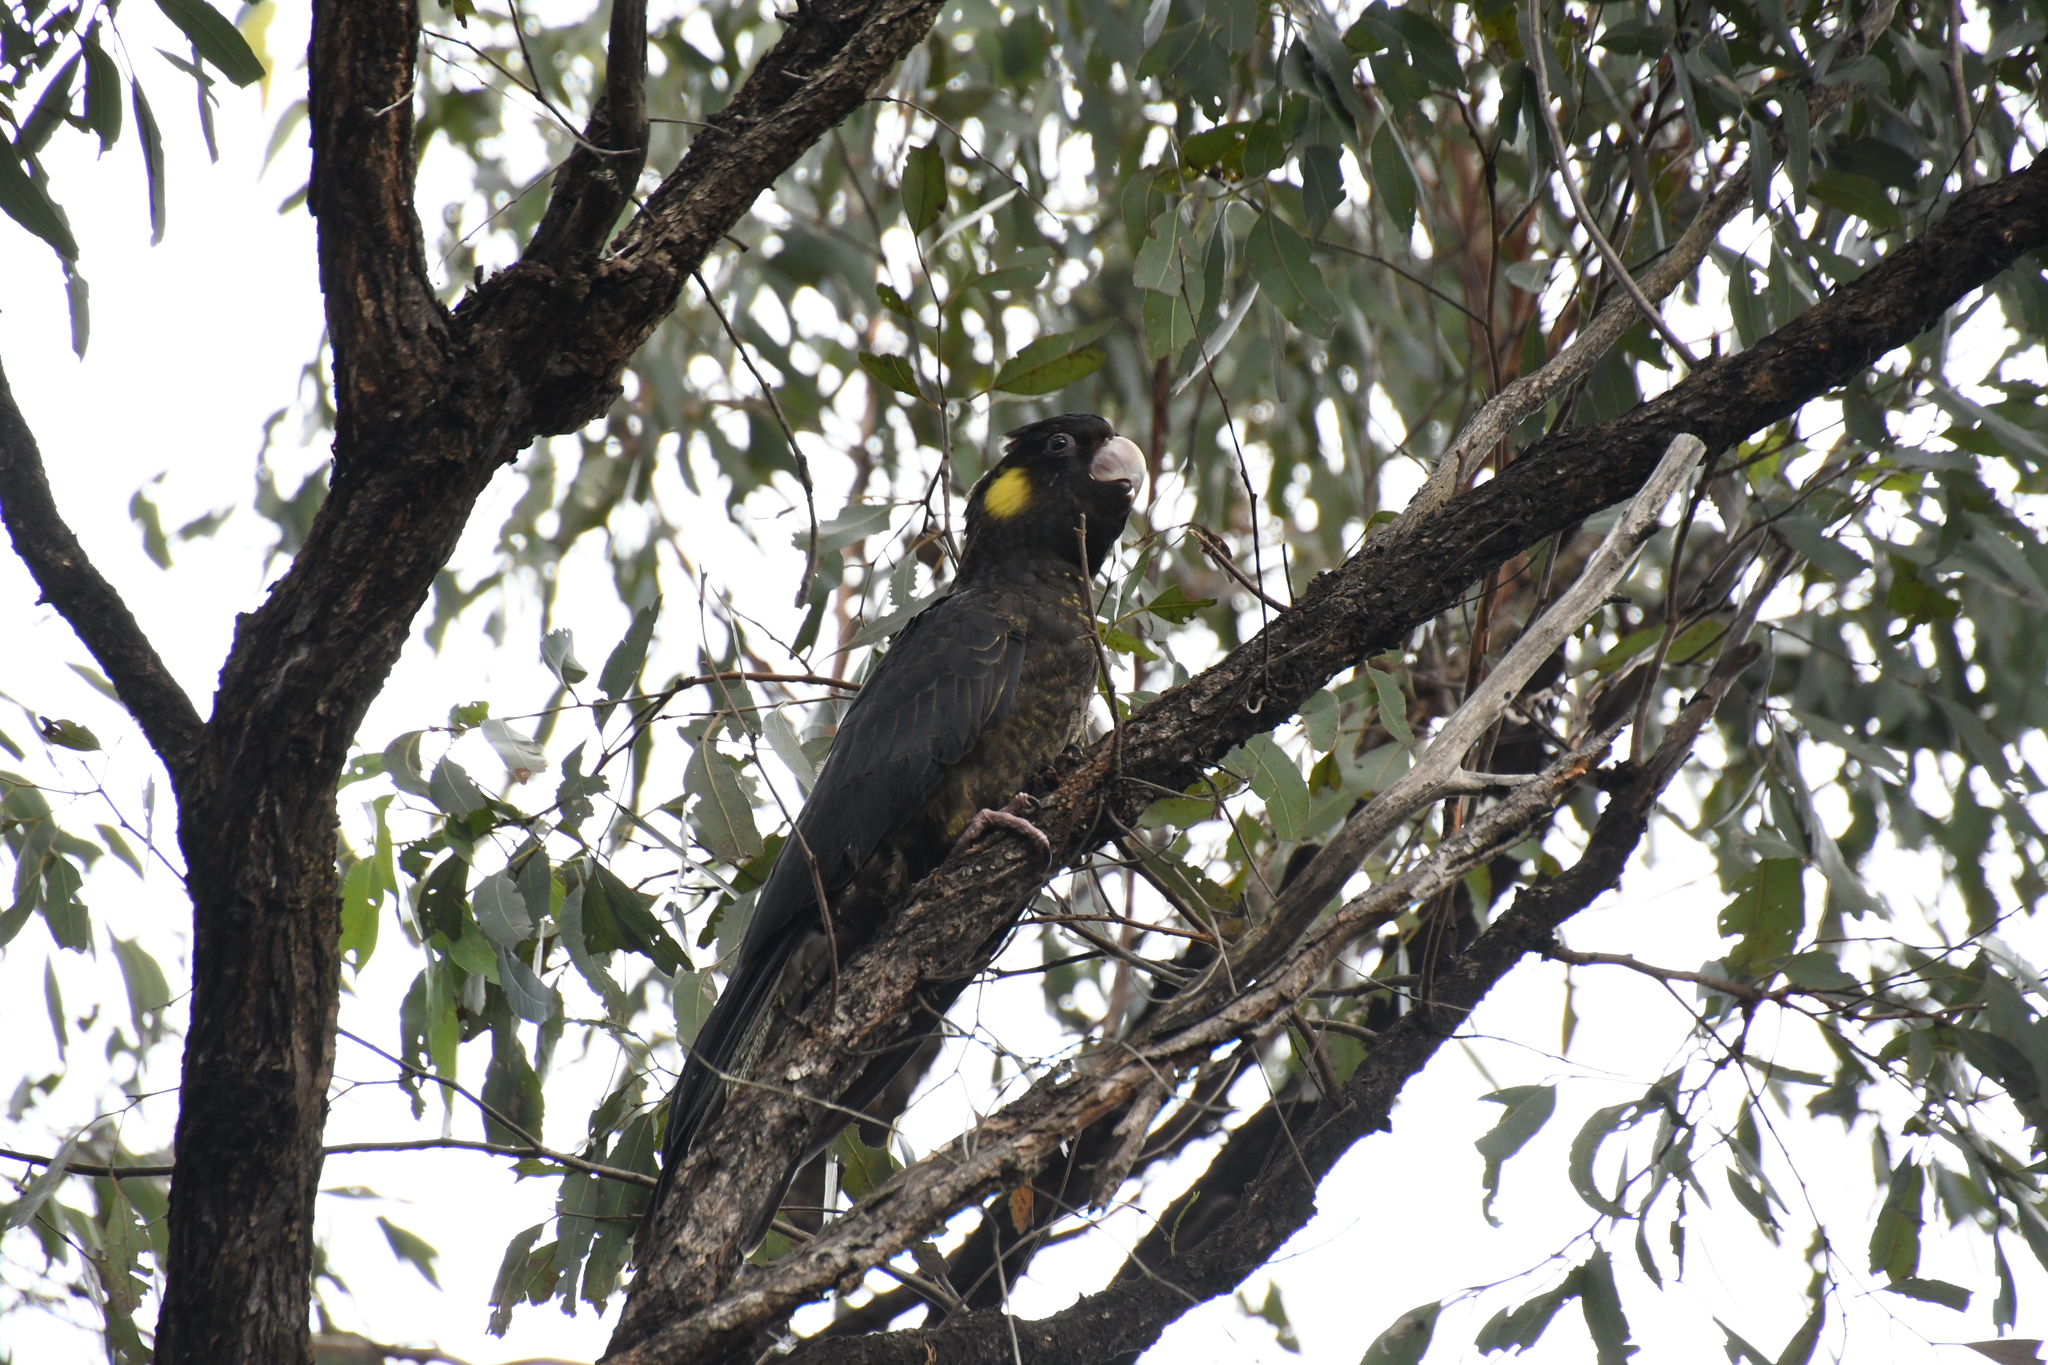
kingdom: Animalia
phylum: Chordata
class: Aves
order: Psittaciformes
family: Cacatuidae
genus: Zanda
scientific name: Zanda funerea
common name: Yellow-tailed black-cockatoo
